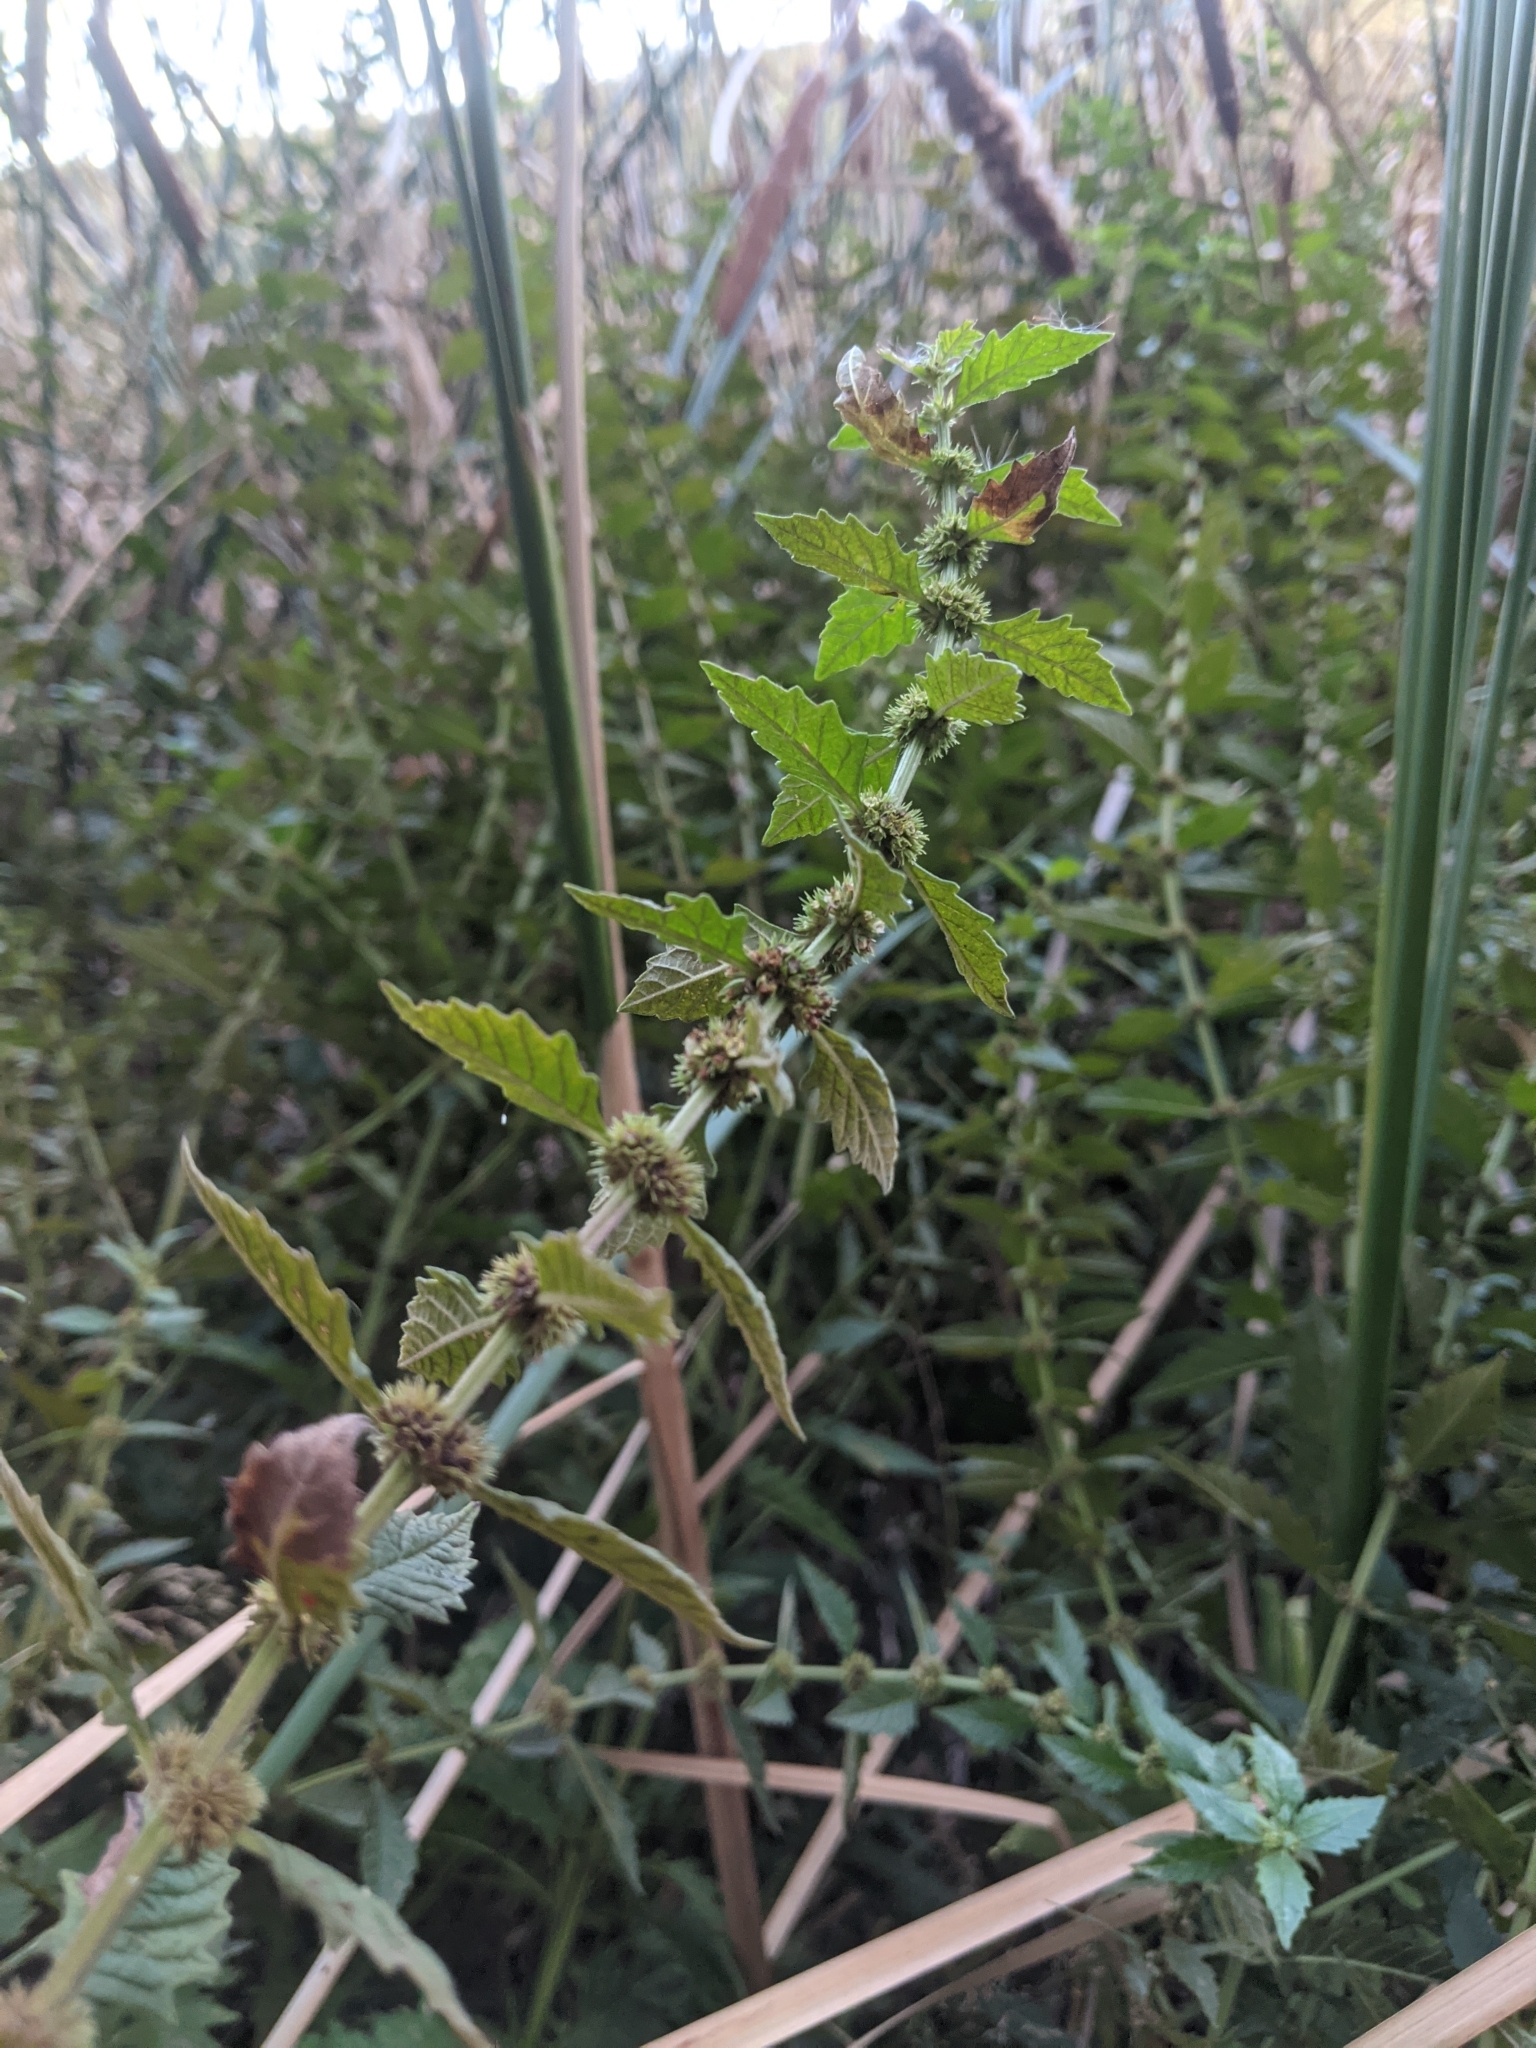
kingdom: Plantae
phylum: Tracheophyta
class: Magnoliopsida
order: Lamiales
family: Lamiaceae
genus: Lycopus
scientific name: Lycopus europaeus
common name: European bugleweed
